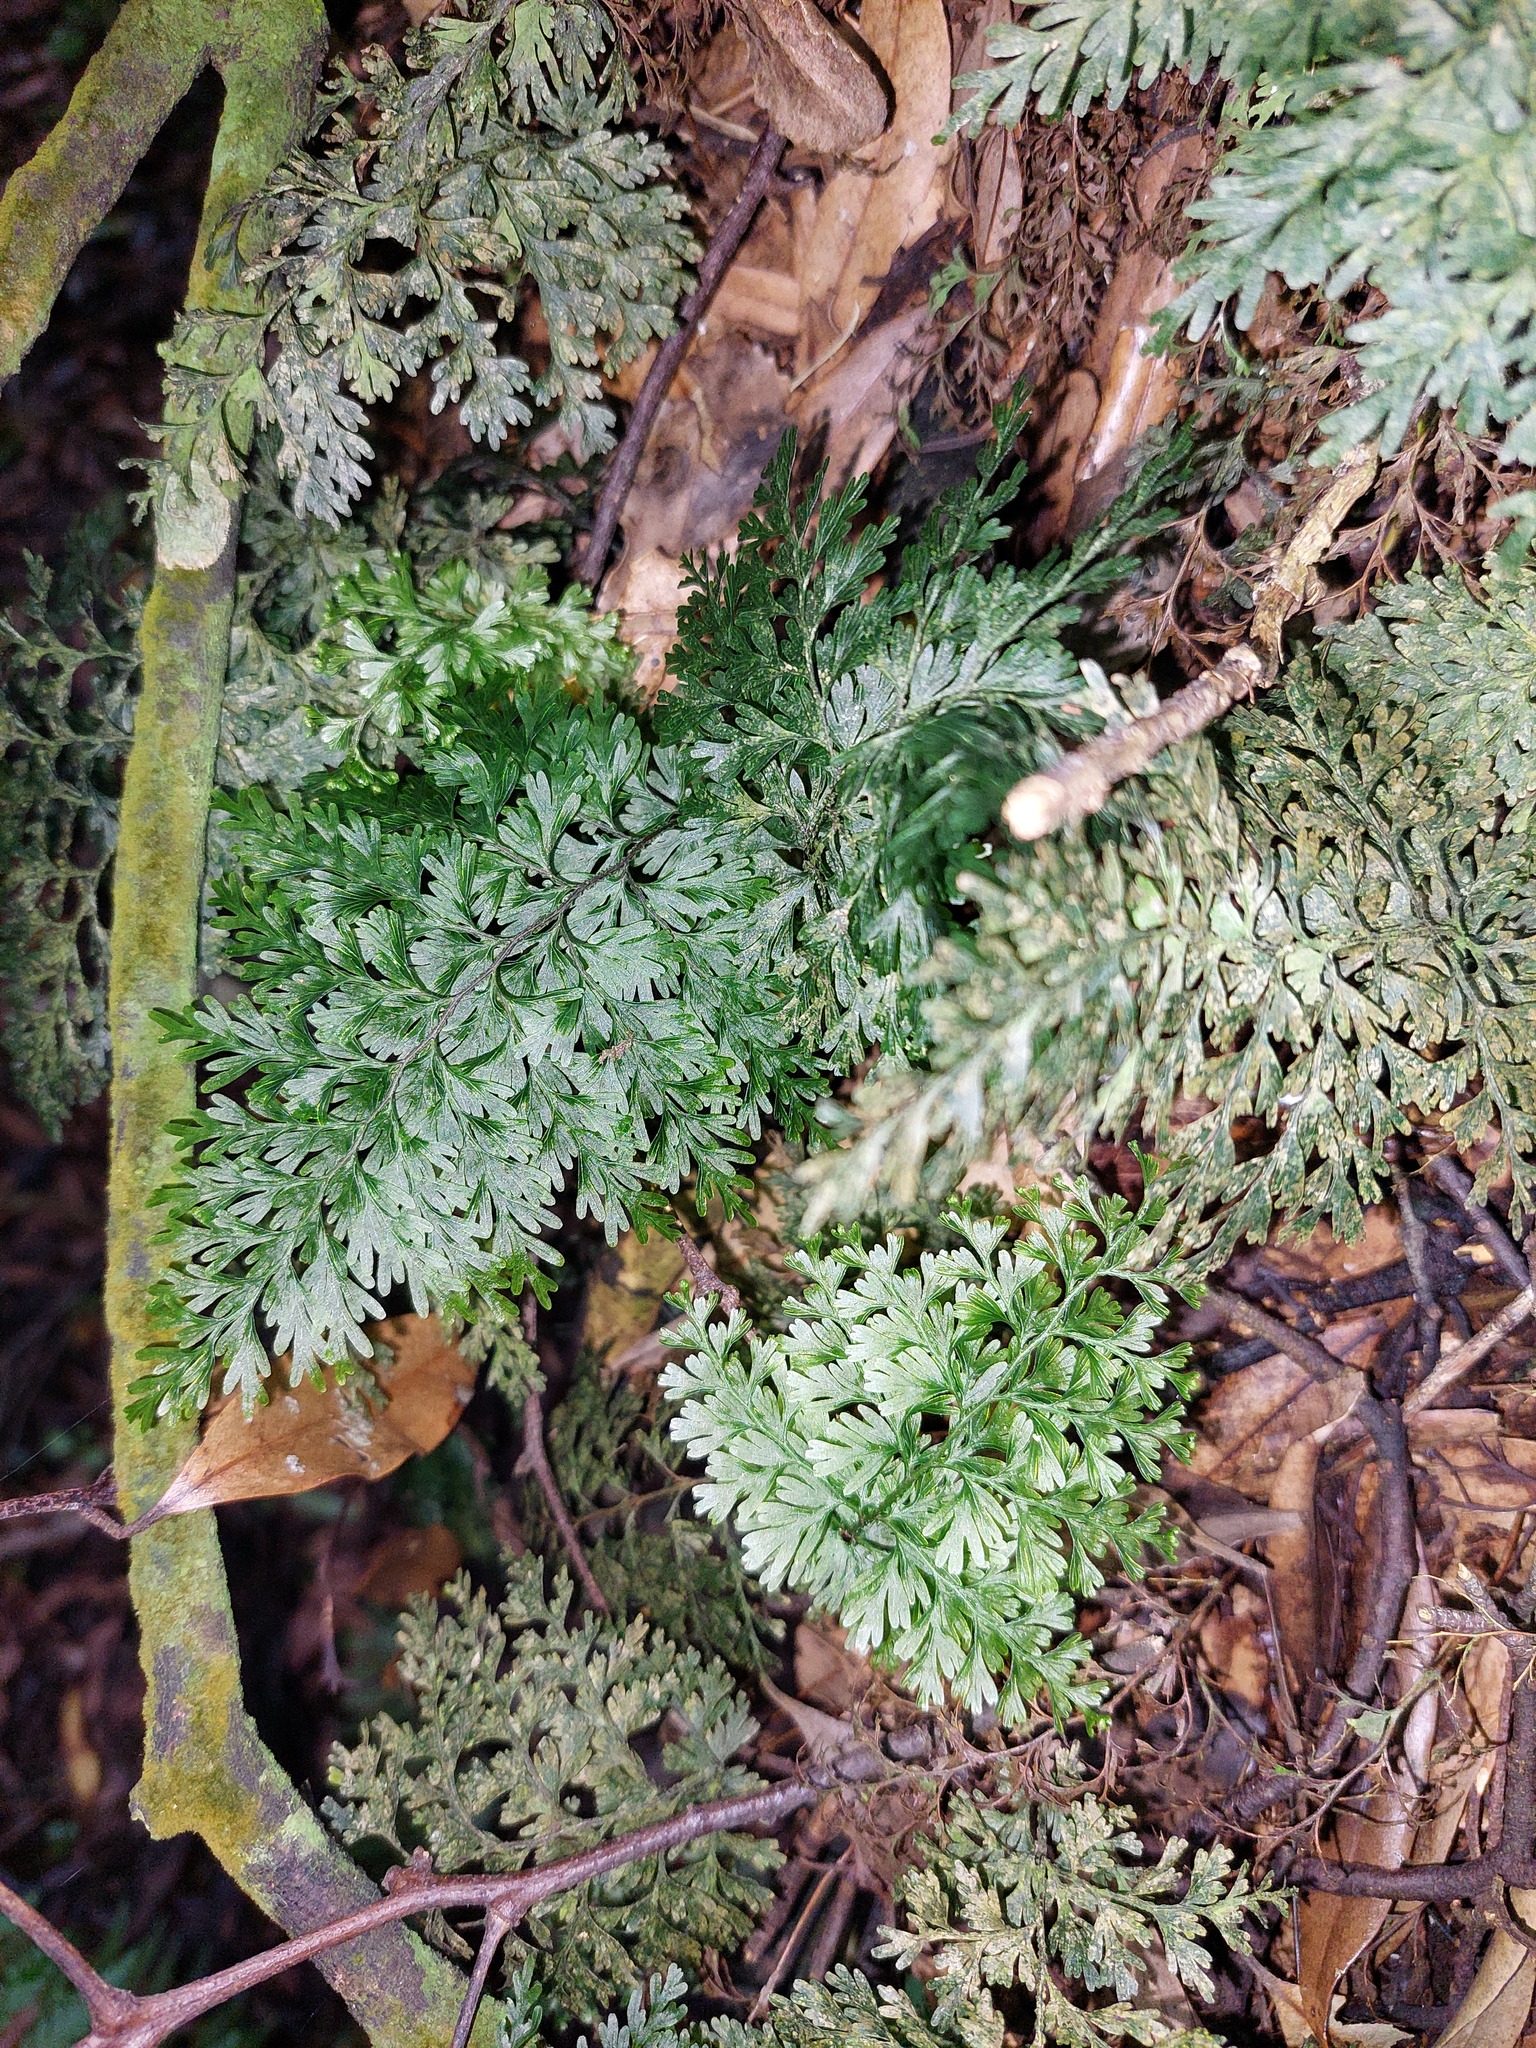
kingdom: Plantae
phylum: Tracheophyta
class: Polypodiopsida
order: Hymenophyllales
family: Hymenophyllaceae
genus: Hymenophyllum
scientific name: Hymenophyllum demissum
